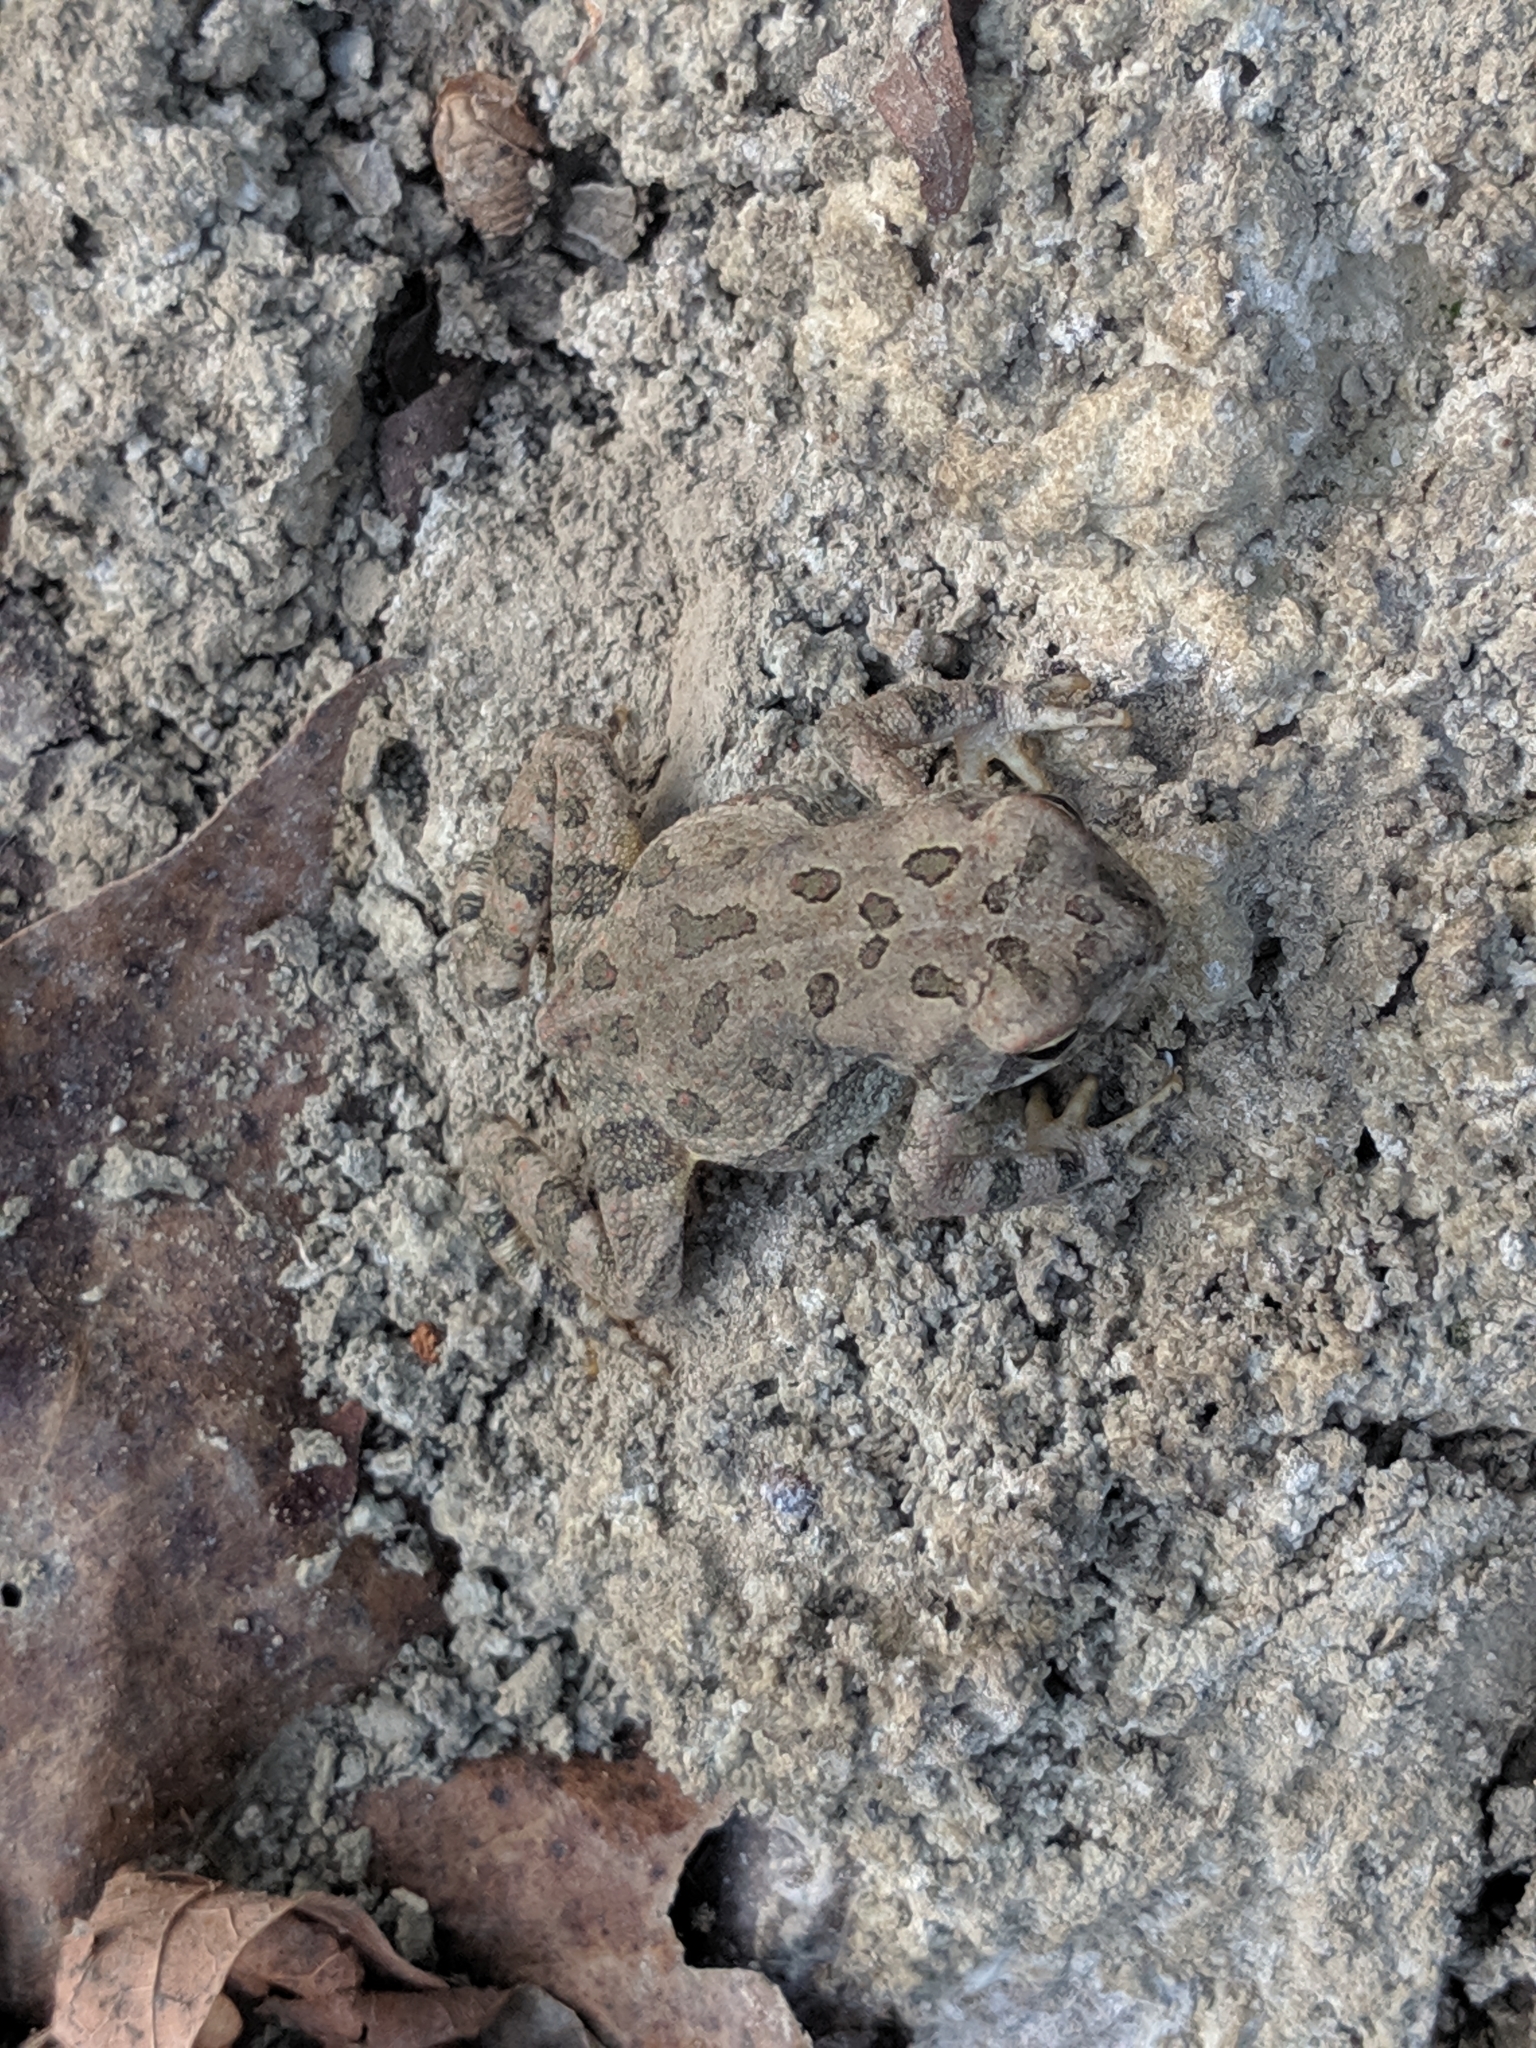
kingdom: Animalia
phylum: Chordata
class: Amphibia
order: Anura
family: Bufonidae
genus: Anaxyrus
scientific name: Anaxyrus fowleri
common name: Fowler's toad
